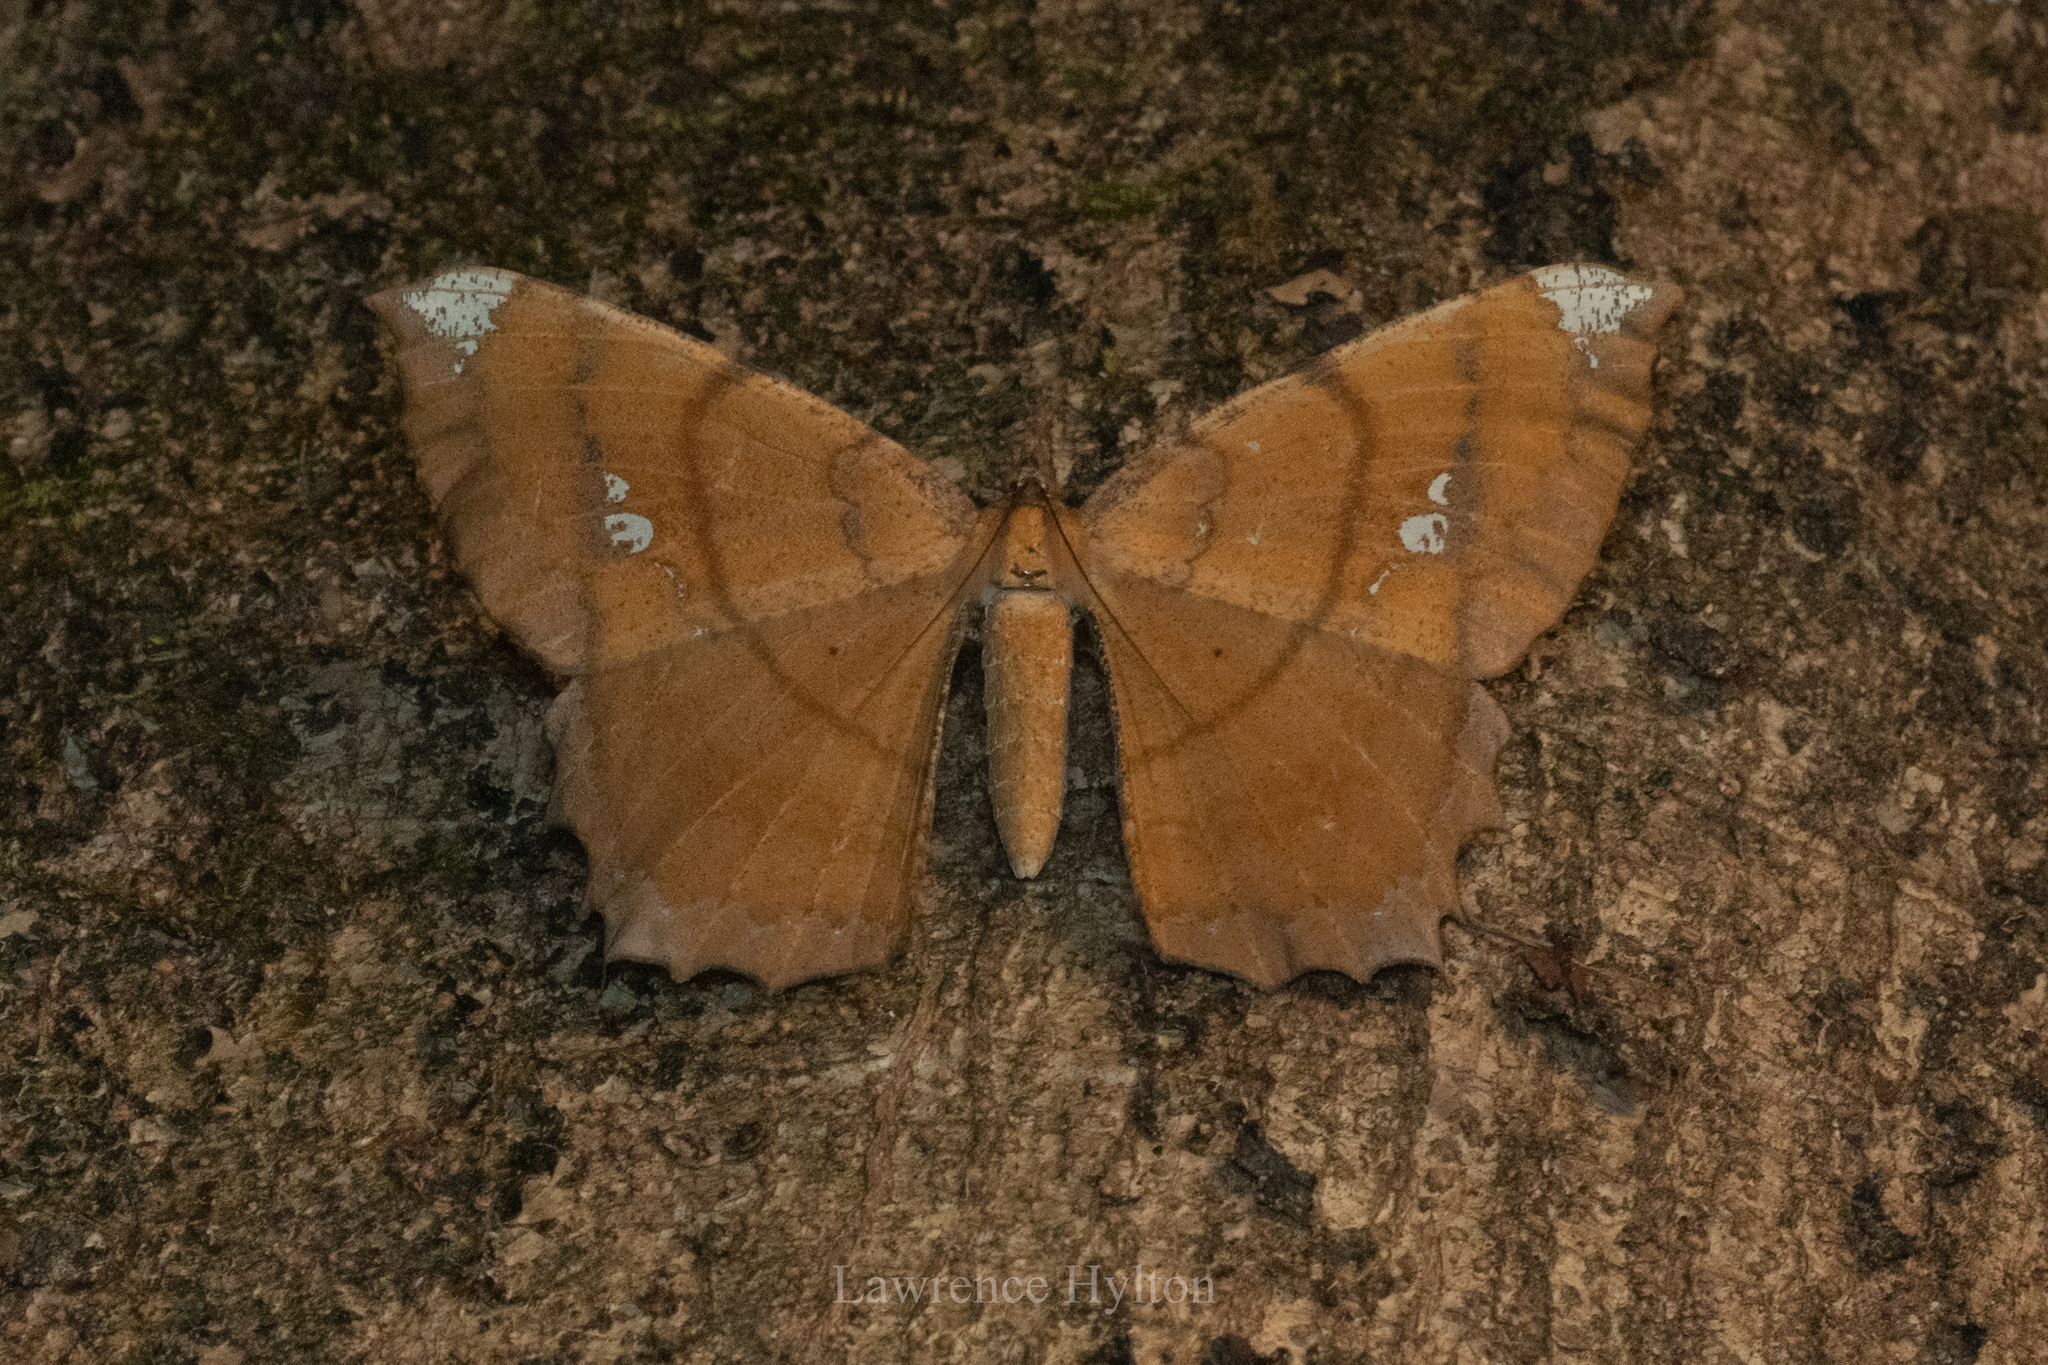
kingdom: Animalia
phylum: Arthropoda
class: Insecta
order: Lepidoptera
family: Geometridae
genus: Amblychia
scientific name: Amblychia angeronaria
